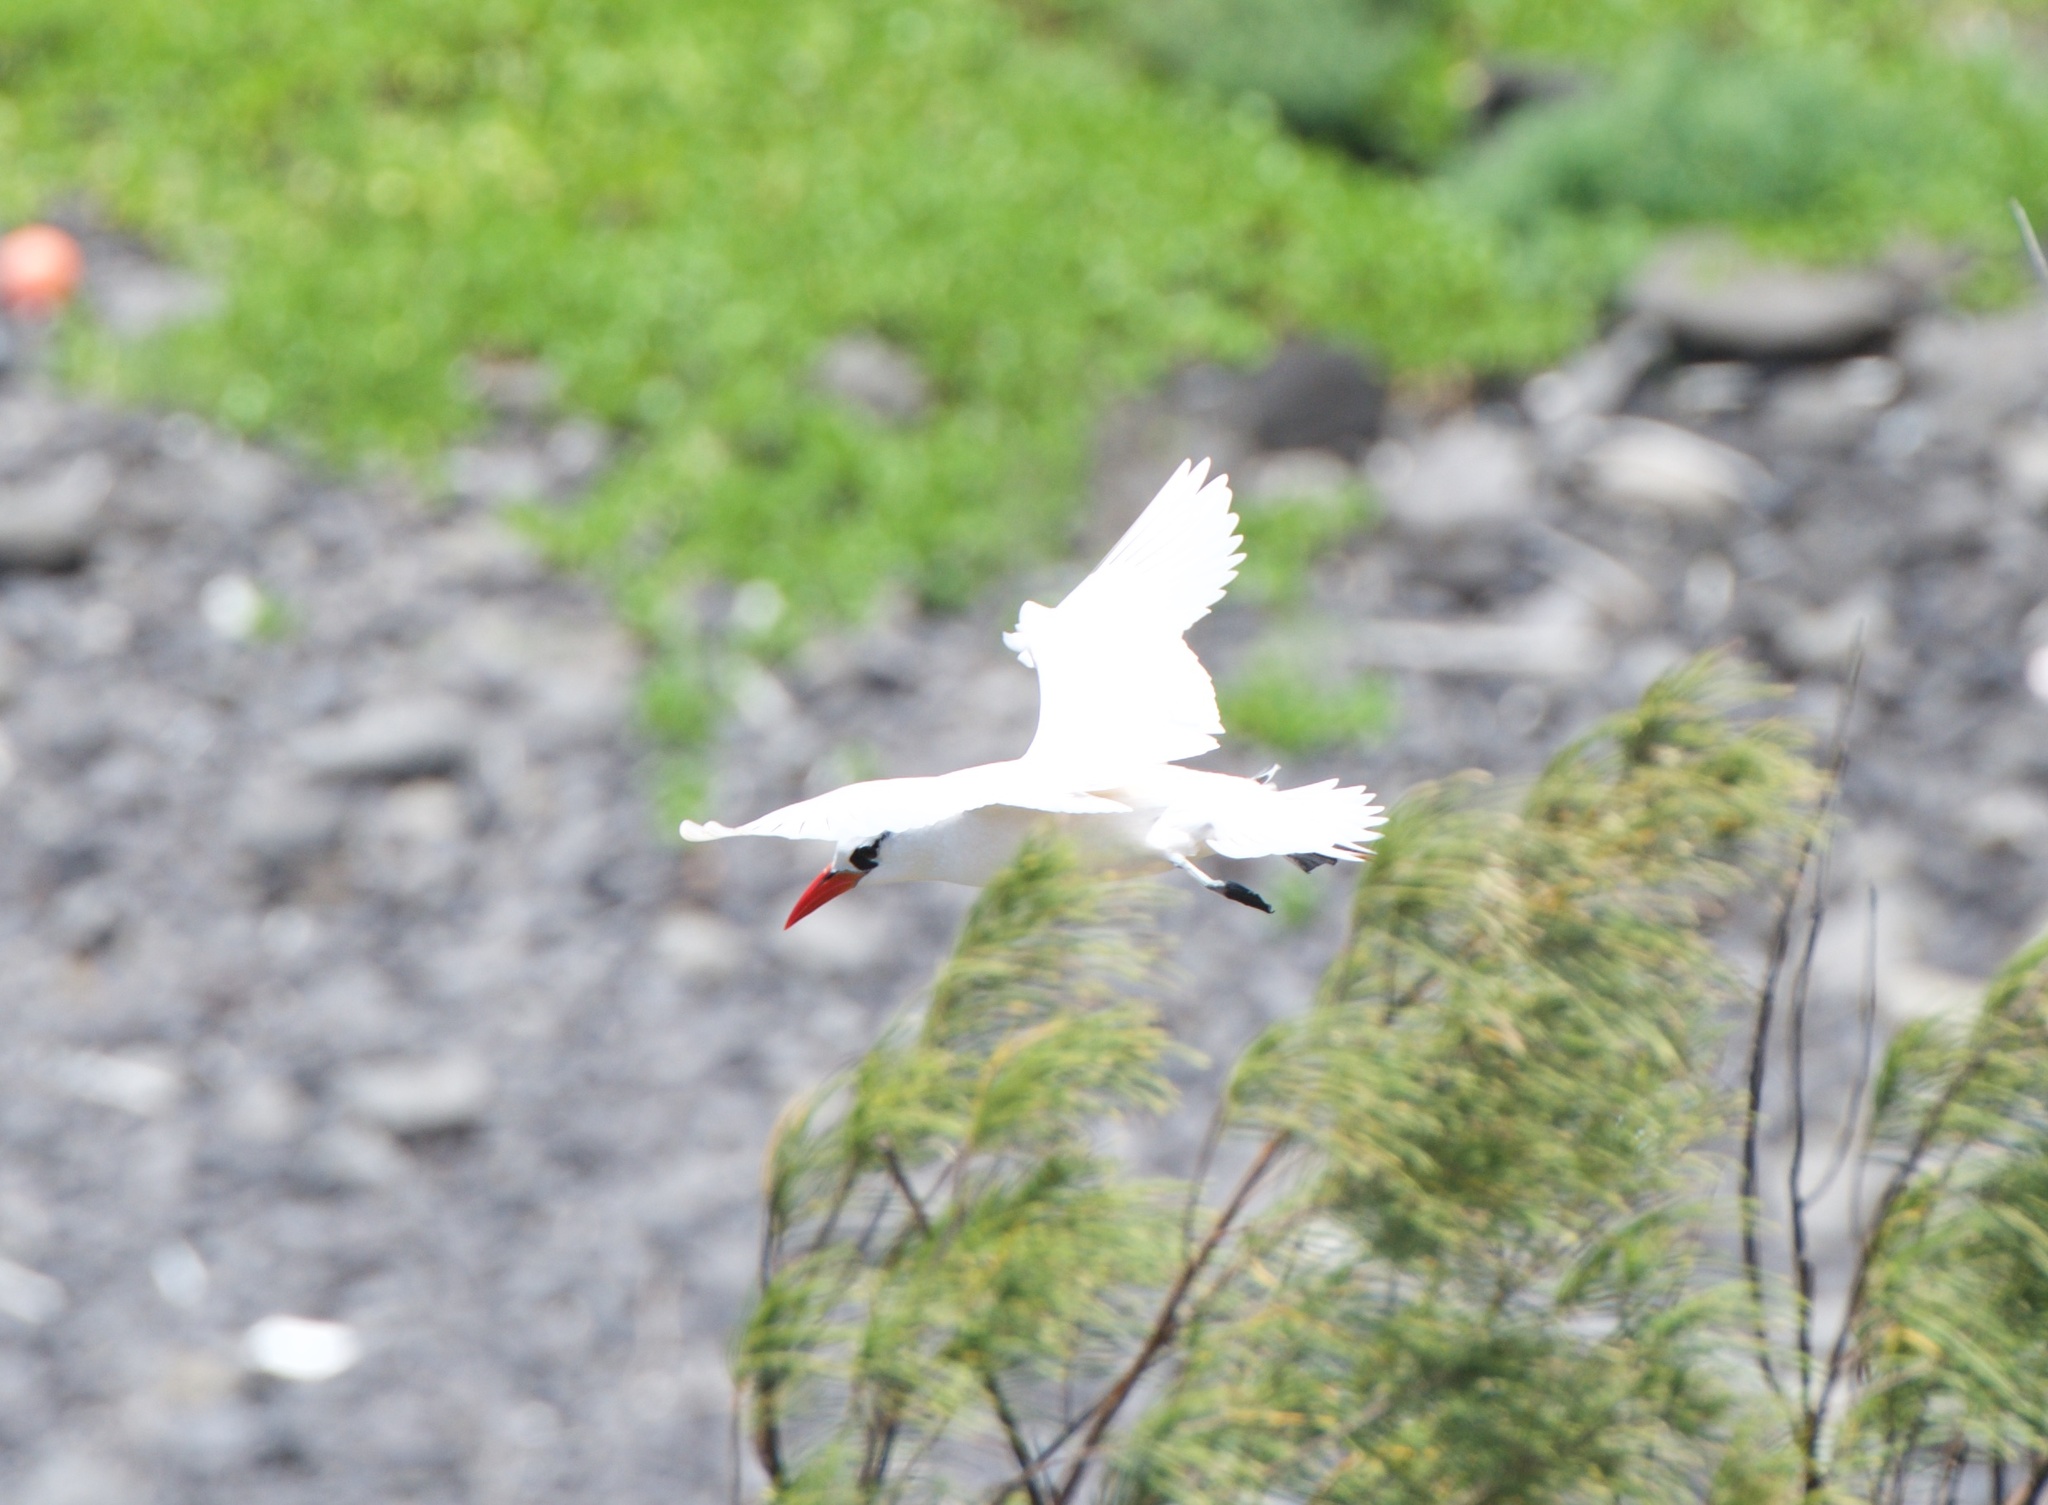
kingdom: Animalia
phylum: Chordata
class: Aves
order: Phaethontiformes
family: Phaethontidae
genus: Phaethon
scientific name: Phaethon rubricauda
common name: Red-tailed tropicbird
